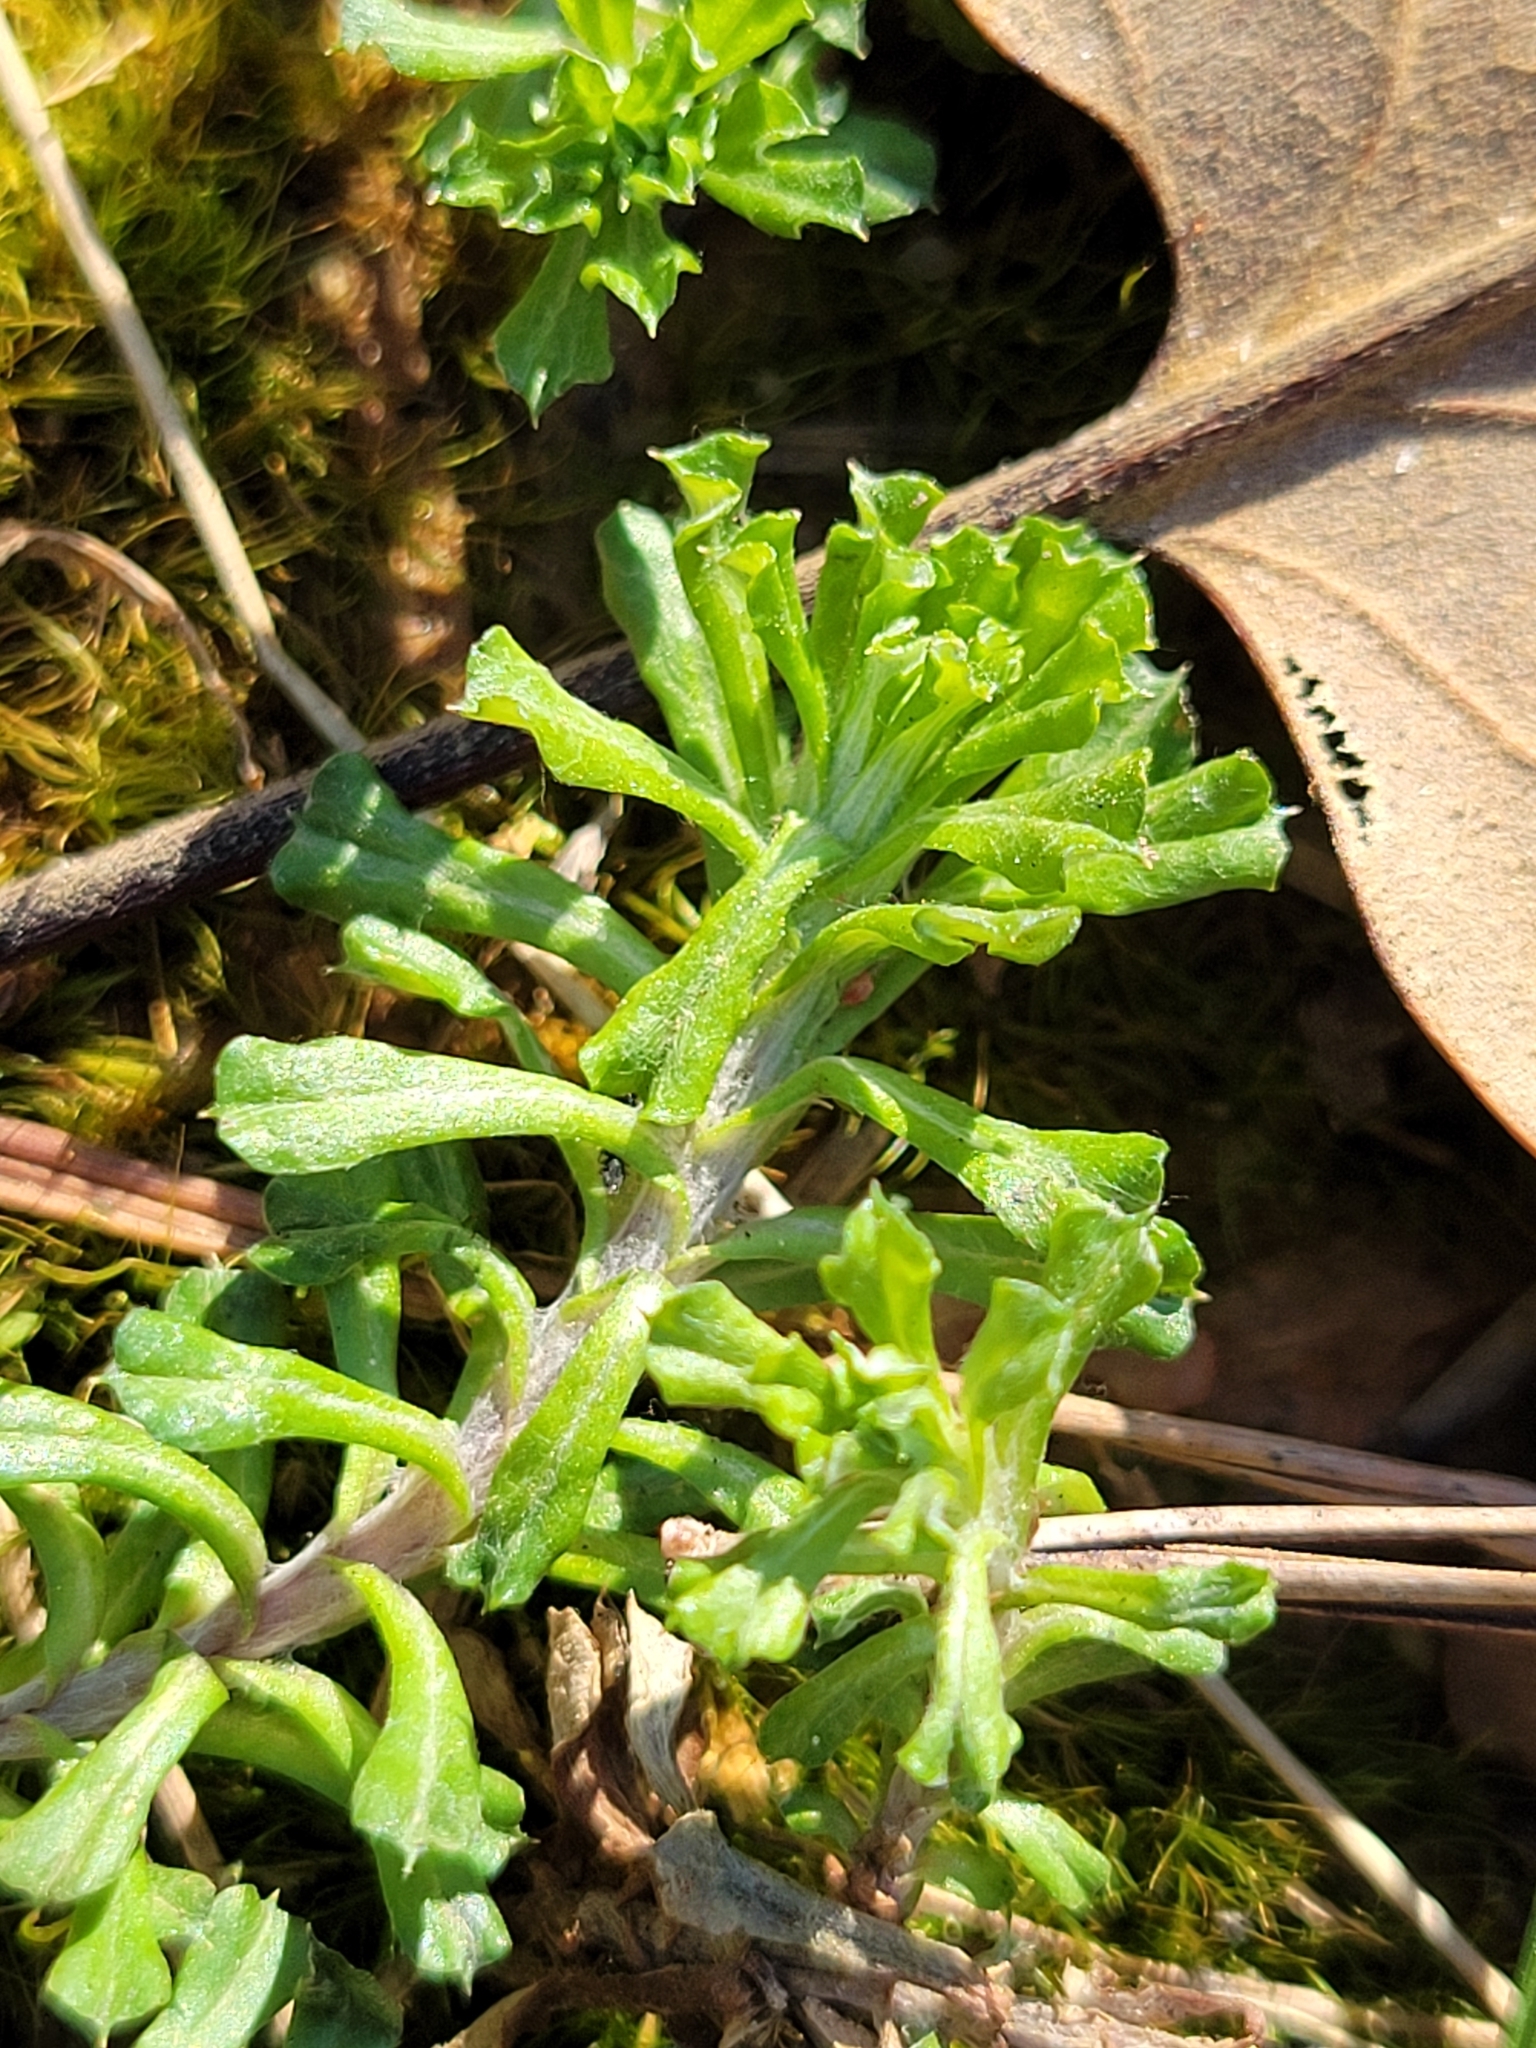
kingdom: Plantae
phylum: Tracheophyta
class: Magnoliopsida
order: Asterales
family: Asteraceae
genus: Facelis
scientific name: Facelis retusa
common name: Annual trampweed
